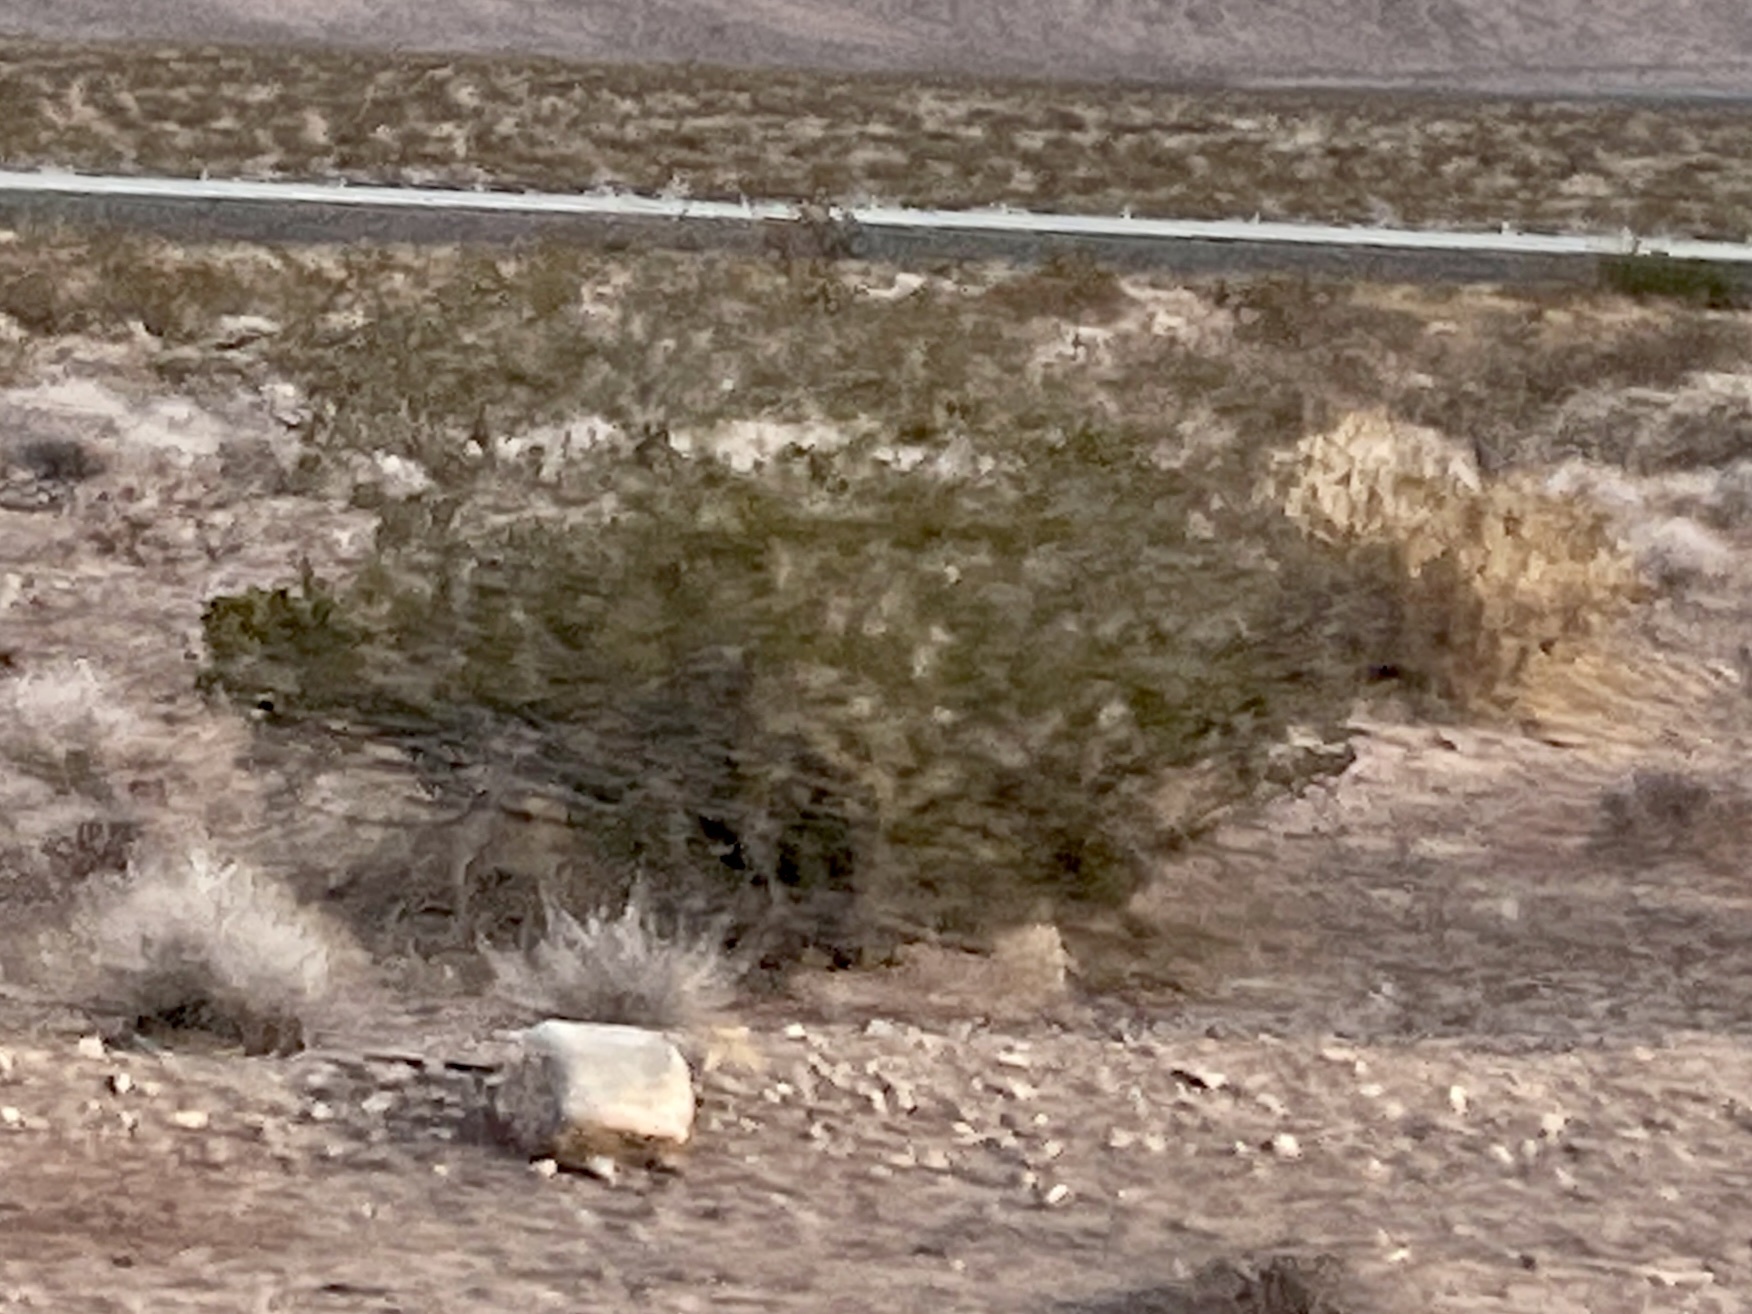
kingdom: Plantae
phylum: Tracheophyta
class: Magnoliopsida
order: Zygophyllales
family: Zygophyllaceae
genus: Larrea
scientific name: Larrea tridentata
